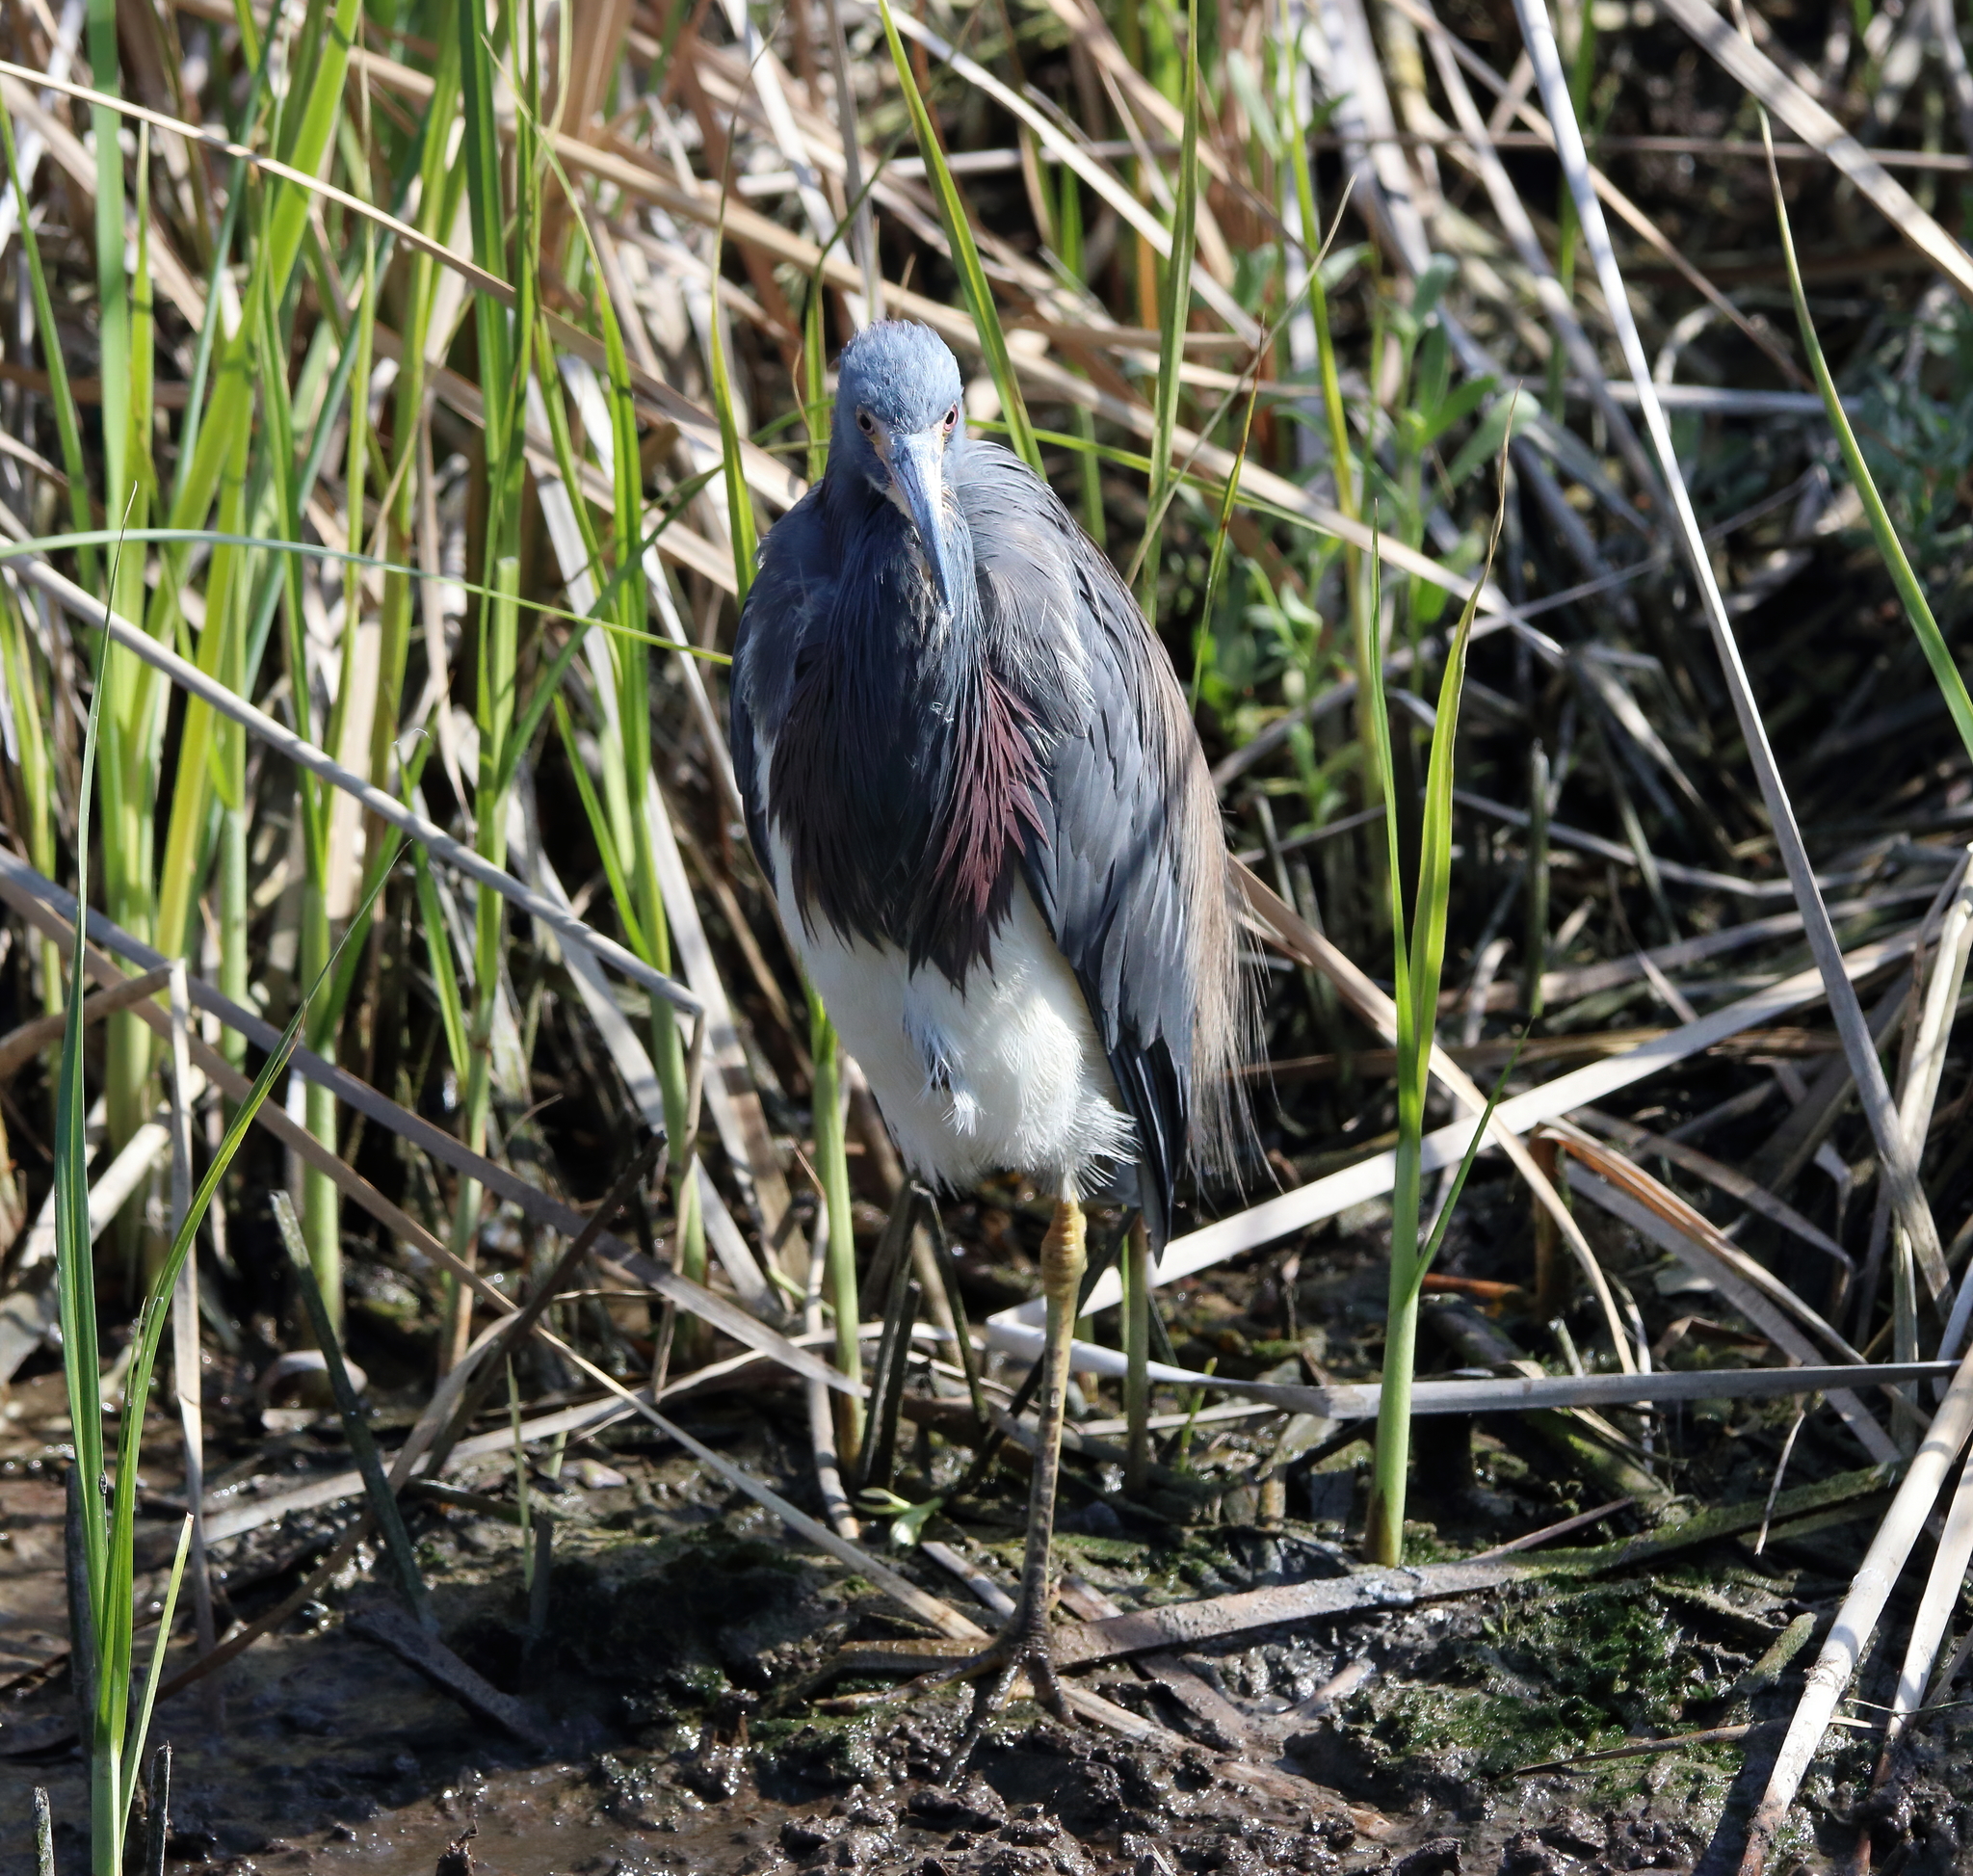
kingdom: Animalia
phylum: Chordata
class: Aves
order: Pelecaniformes
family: Ardeidae
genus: Egretta
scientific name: Egretta tricolor
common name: Tricolored heron
